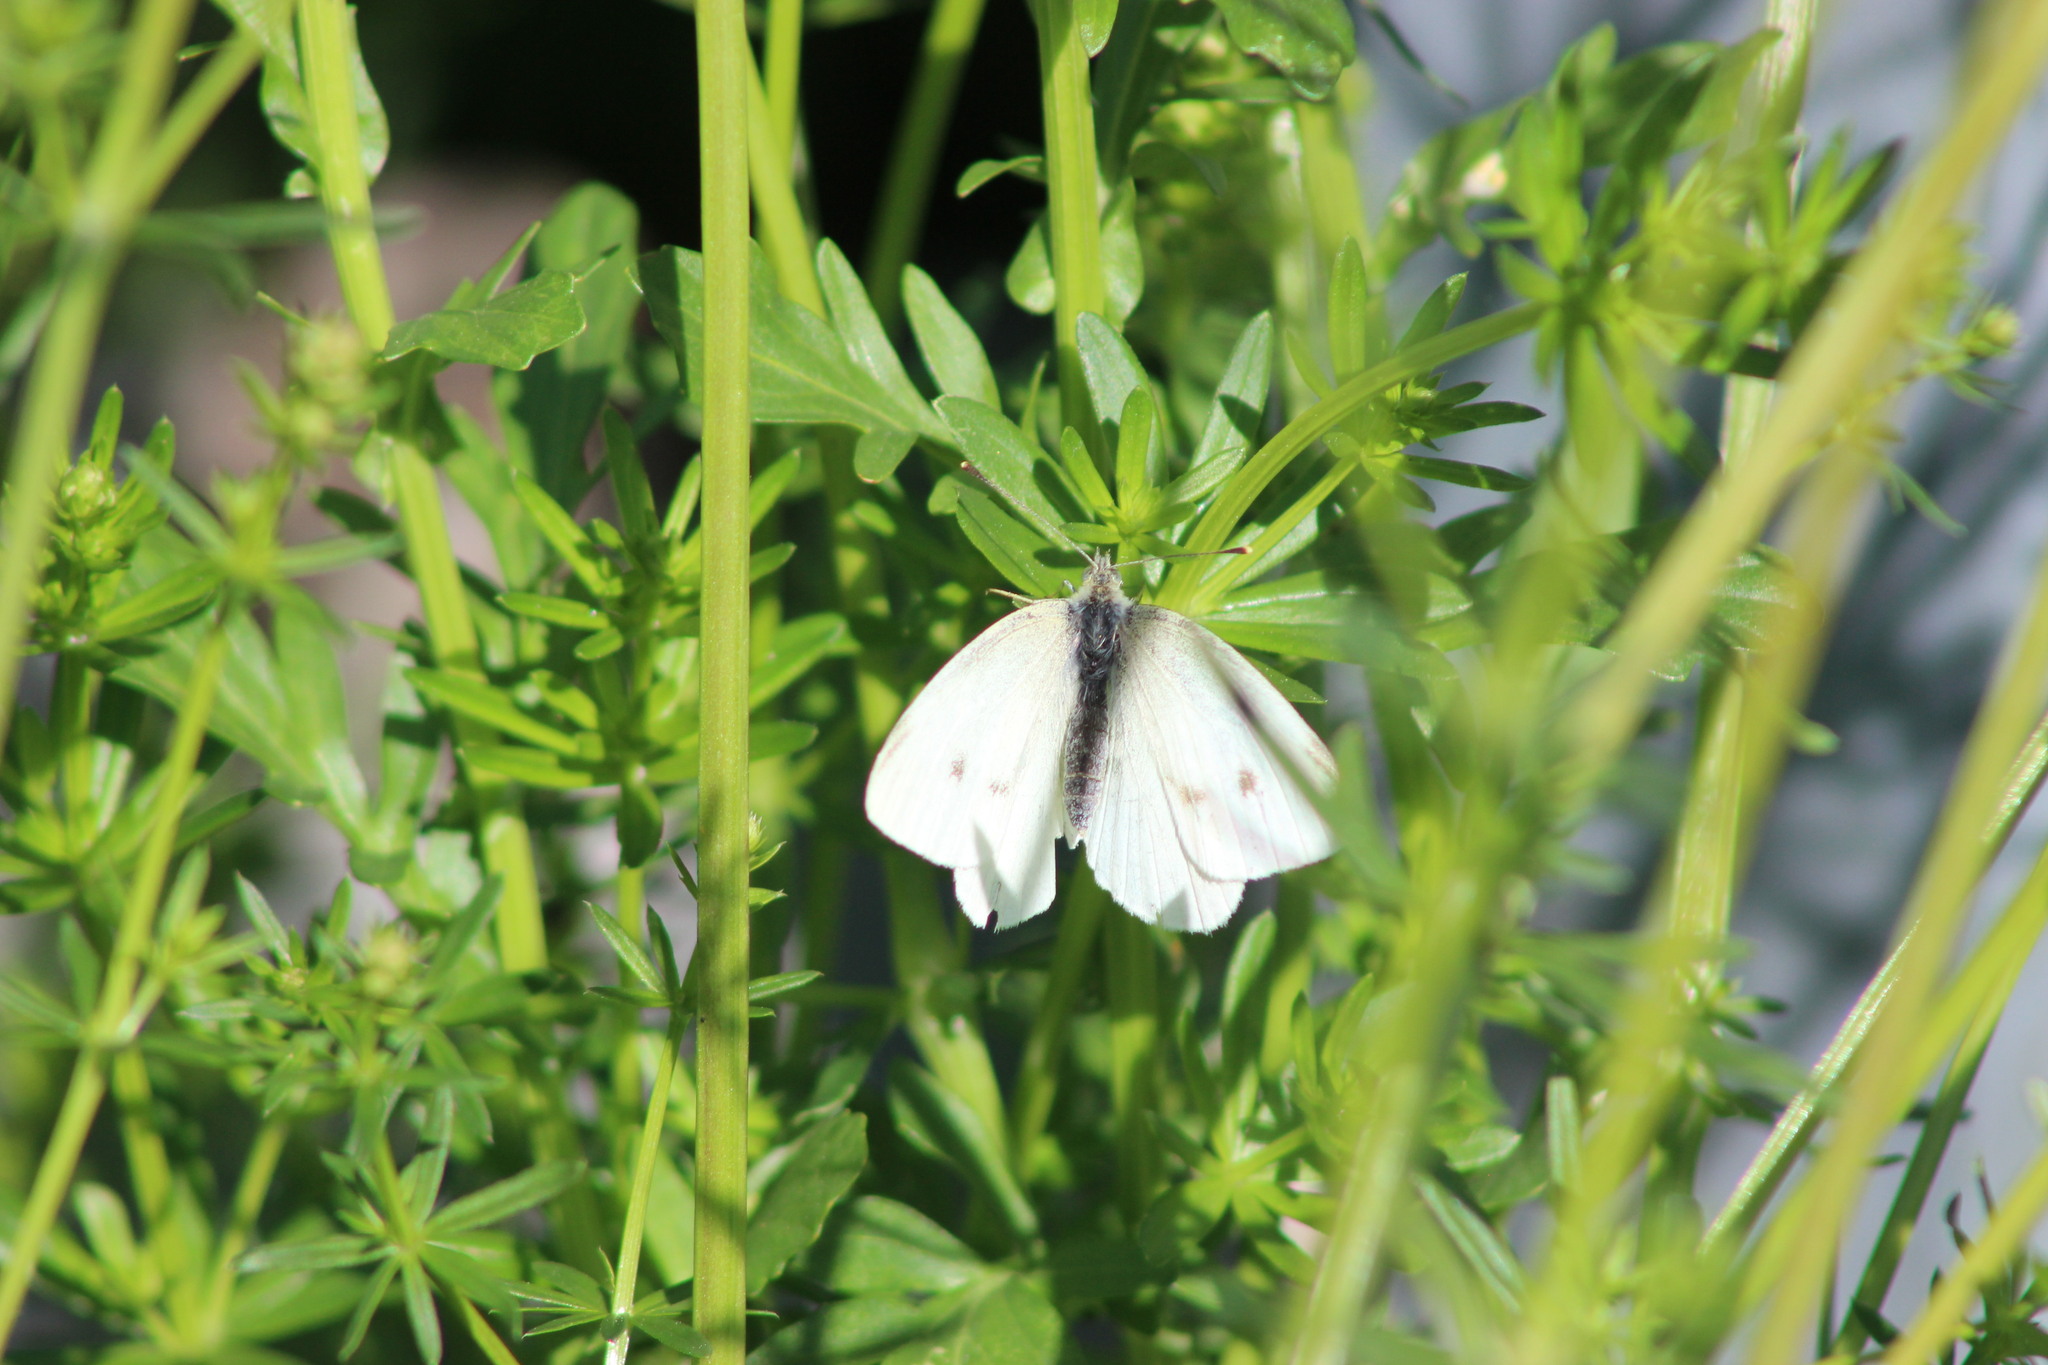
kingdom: Animalia
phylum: Arthropoda
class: Insecta
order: Lepidoptera
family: Pieridae
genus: Pieris
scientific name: Pieris rapae
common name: Small white
